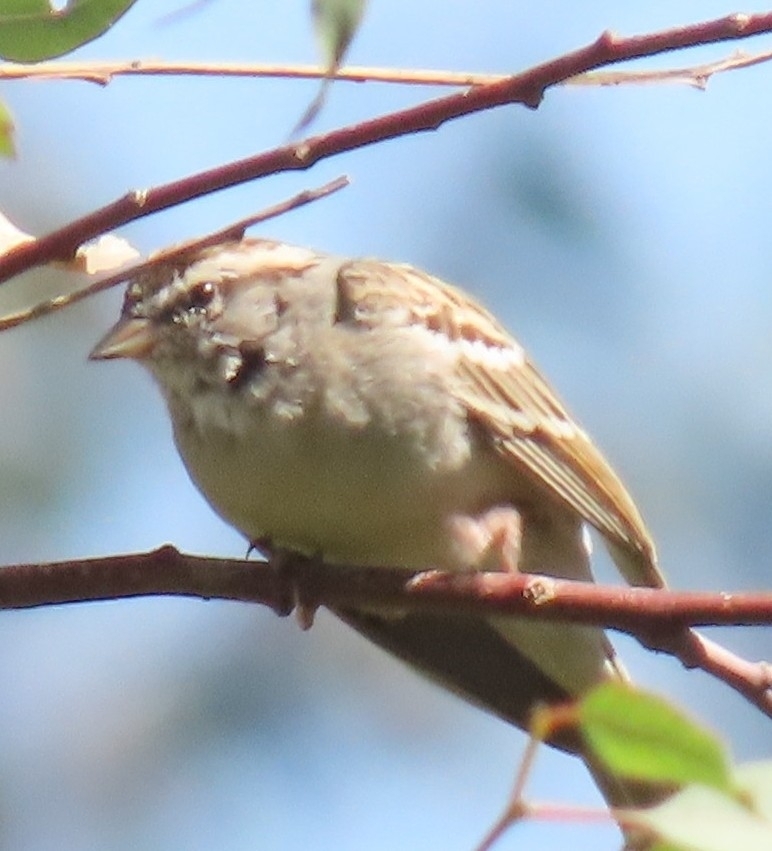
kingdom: Animalia
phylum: Chordata
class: Aves
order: Passeriformes
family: Passerellidae
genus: Spizella
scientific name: Spizella passerina
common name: Chipping sparrow
